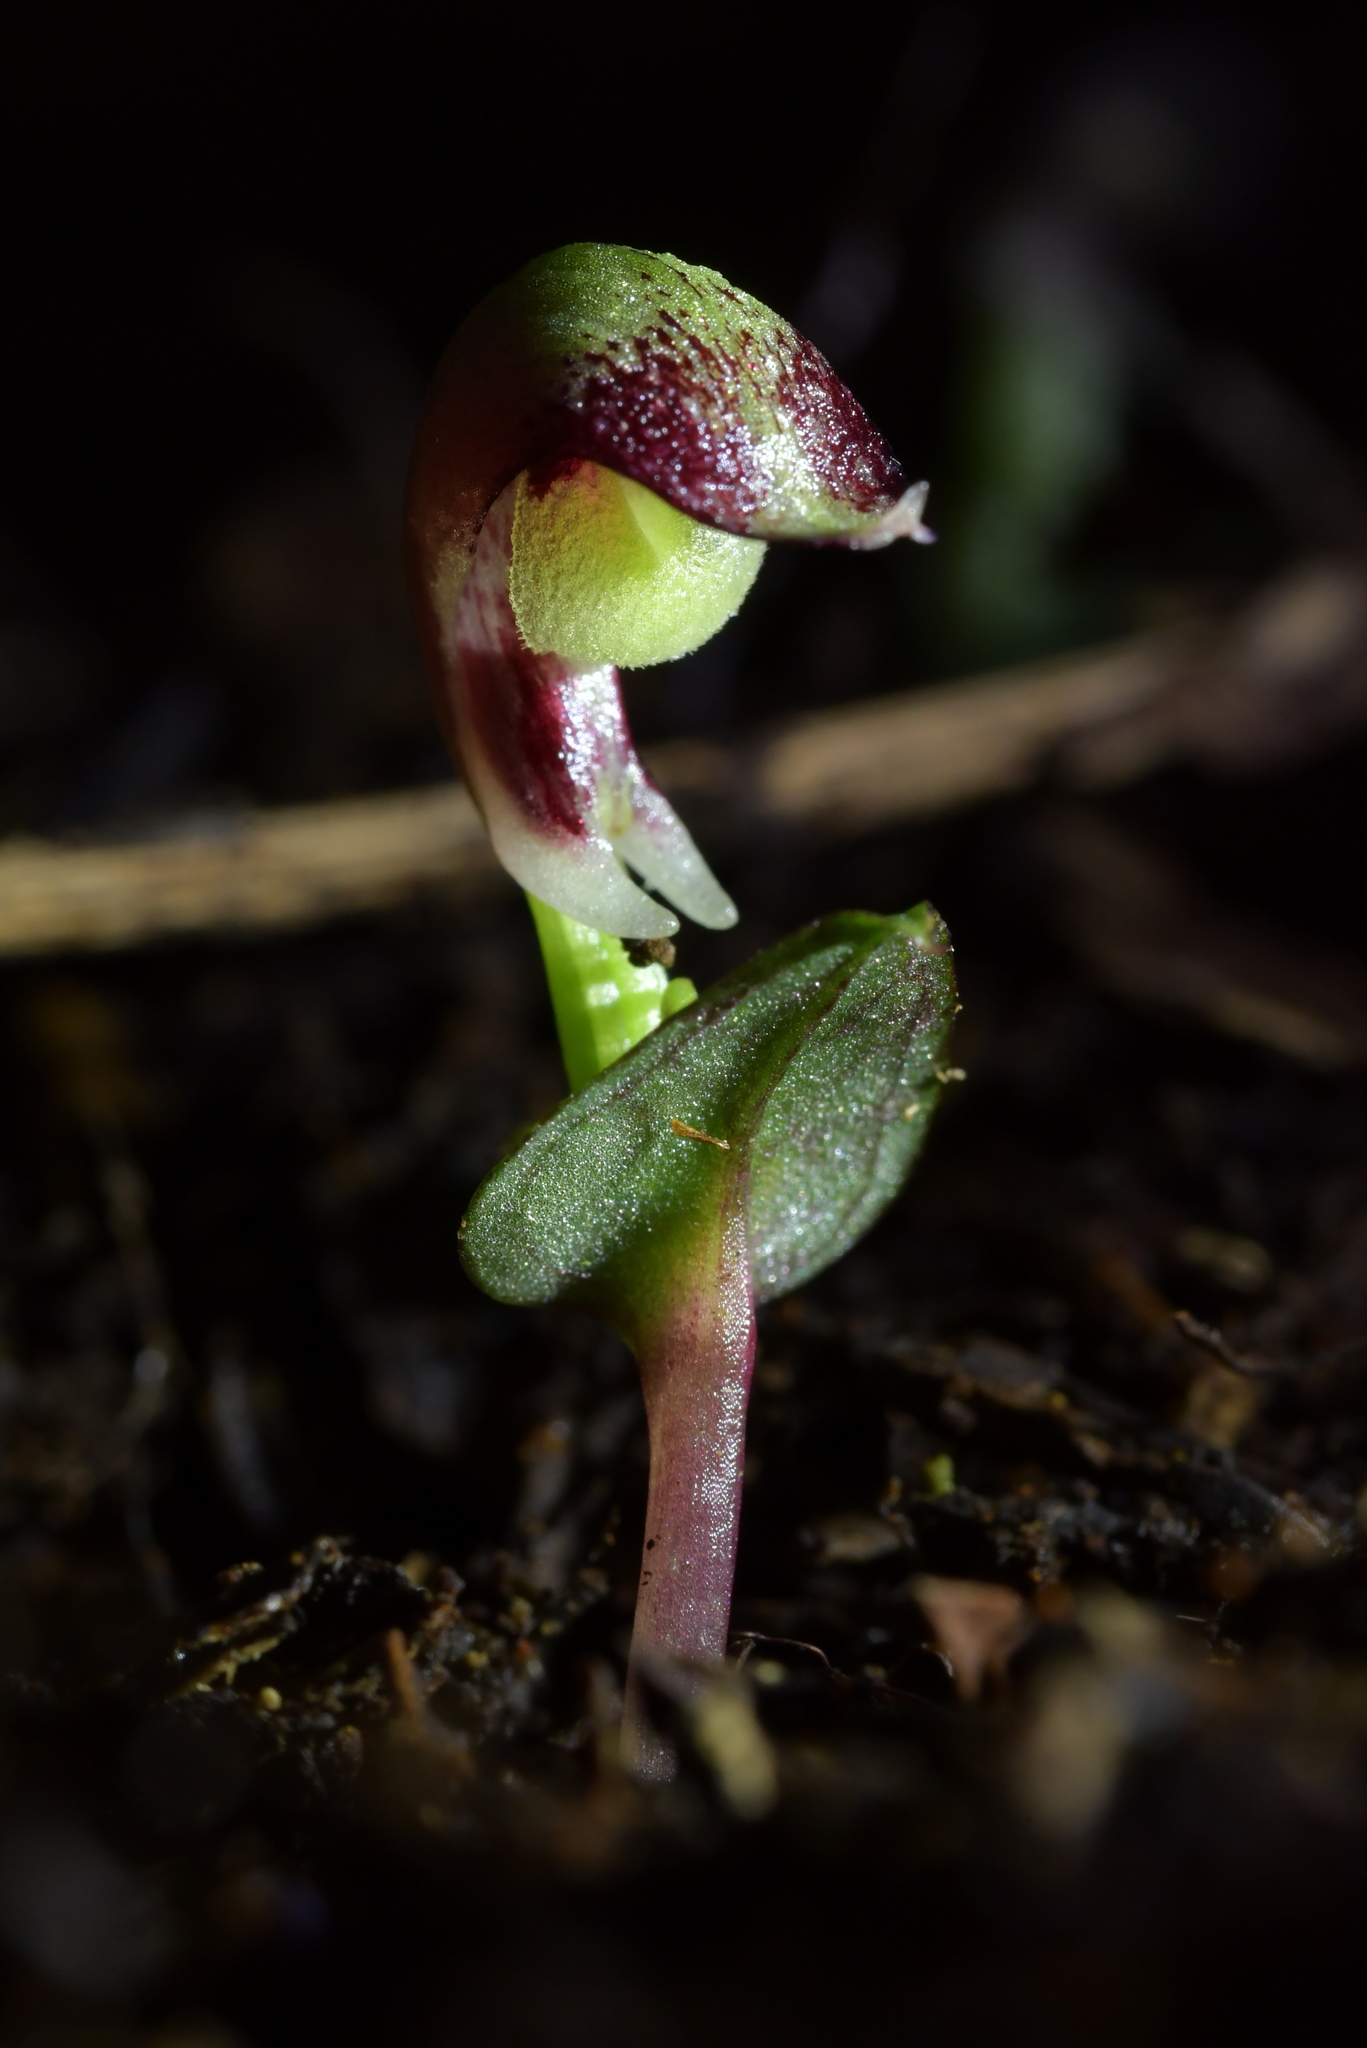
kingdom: Plantae
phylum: Tracheophyta
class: Liliopsida
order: Asparagales
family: Orchidaceae
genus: Corybas
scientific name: Corybas cheesemanii
